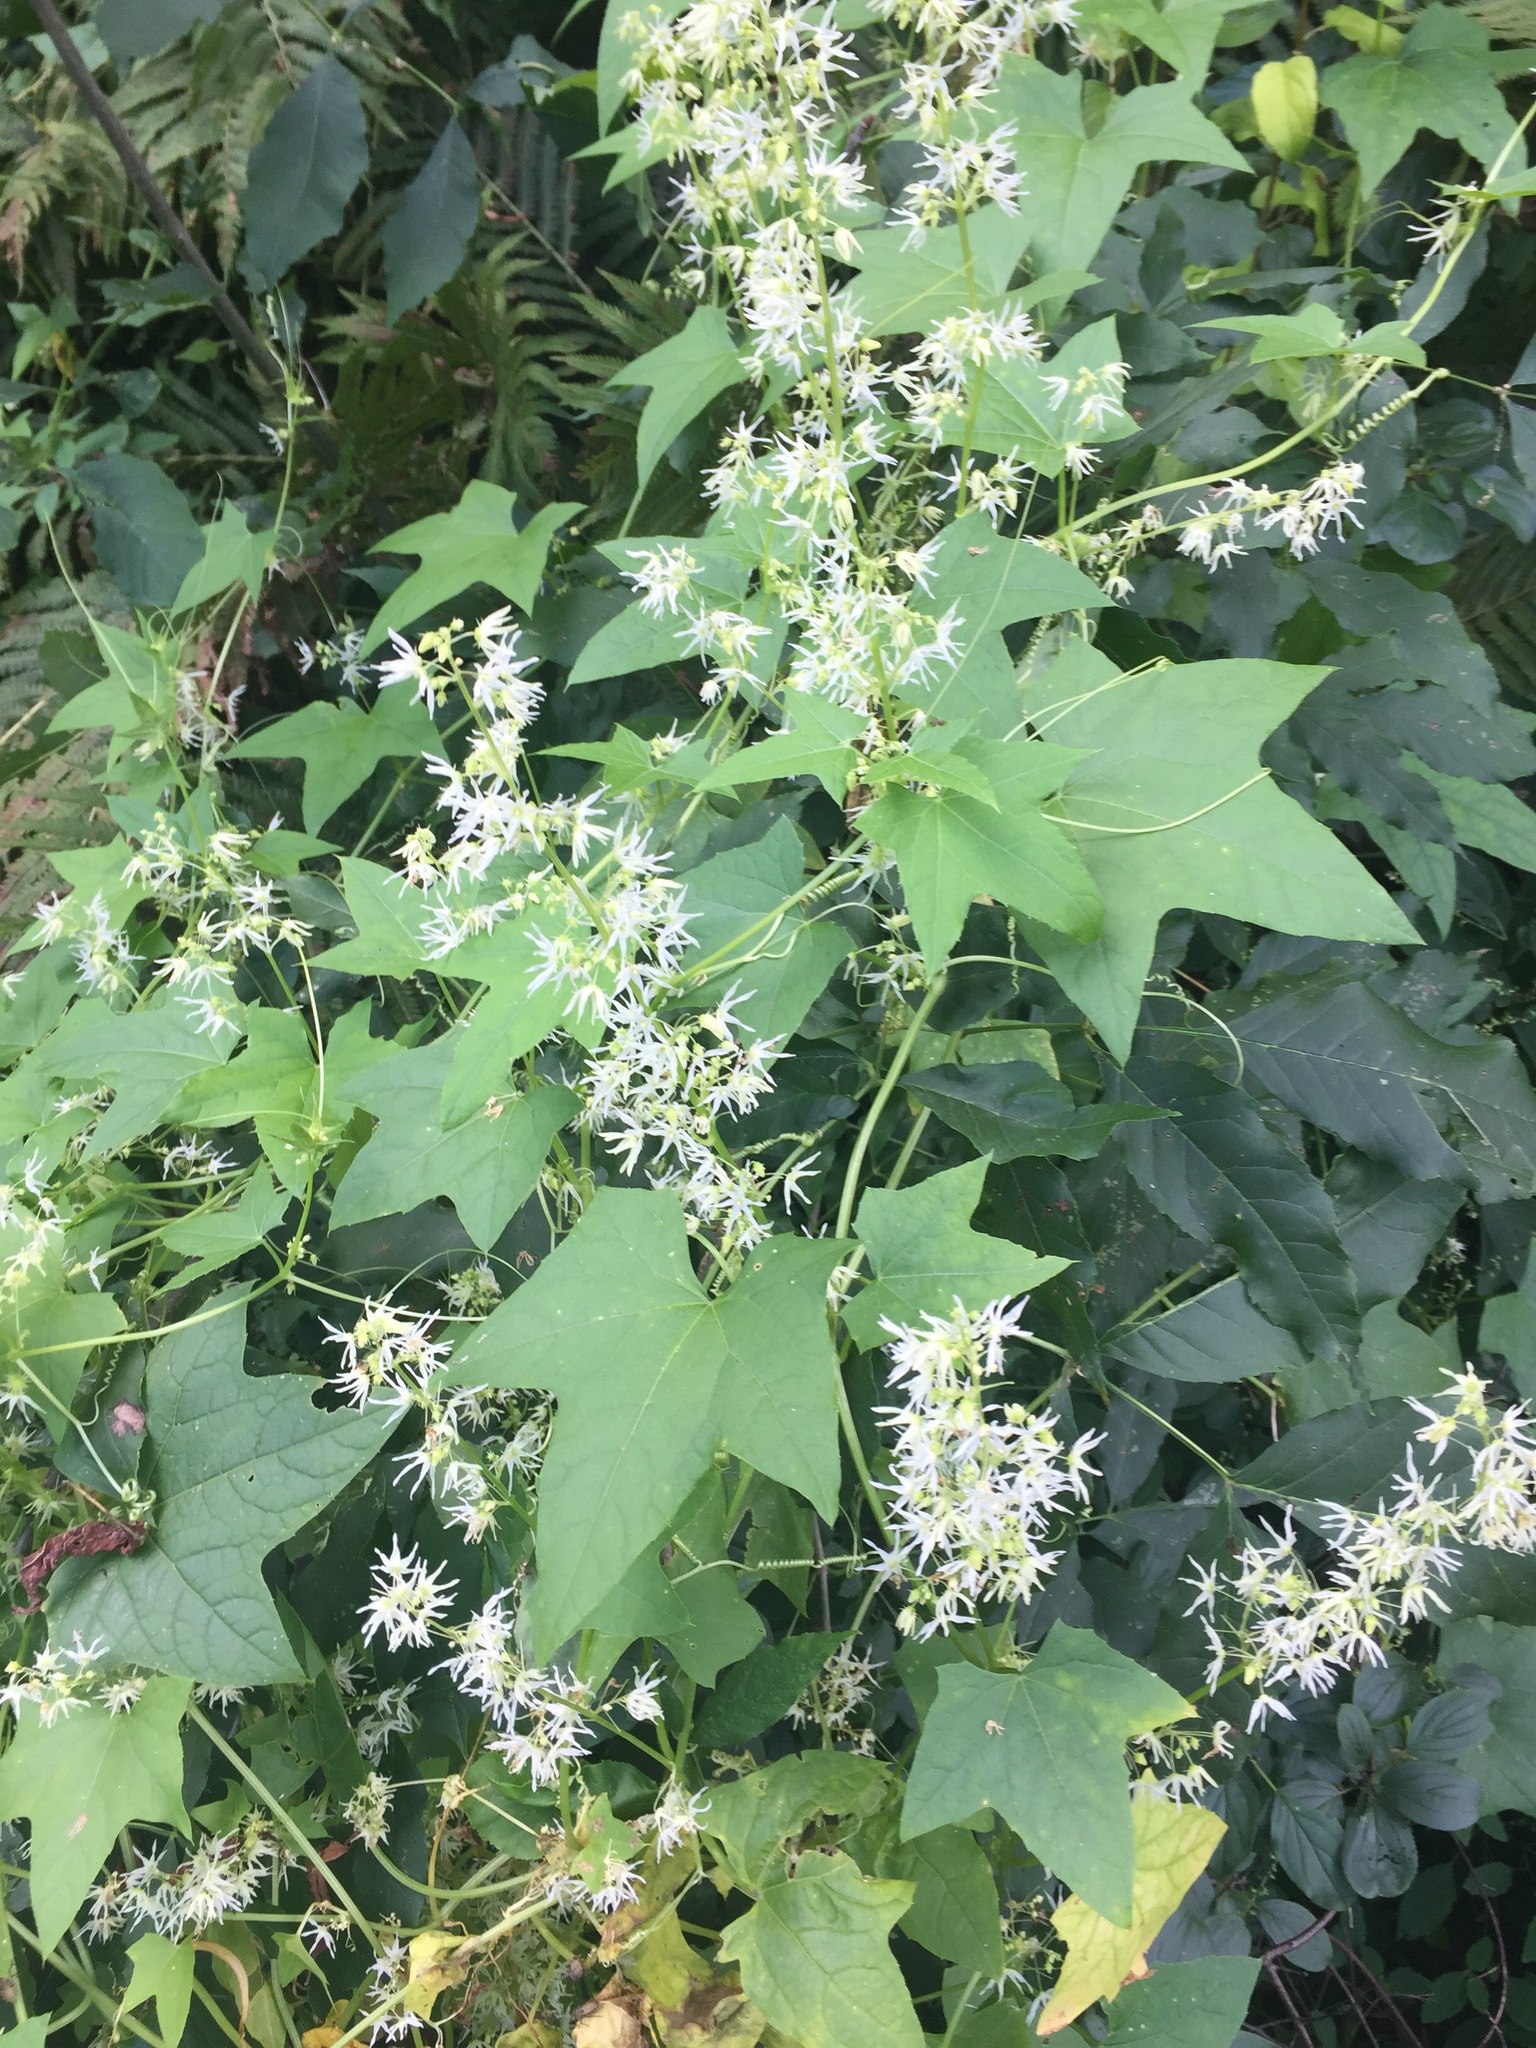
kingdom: Plantae
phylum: Tracheophyta
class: Magnoliopsida
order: Cucurbitales
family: Cucurbitaceae
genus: Echinocystis
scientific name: Echinocystis lobata
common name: Wild cucumber
